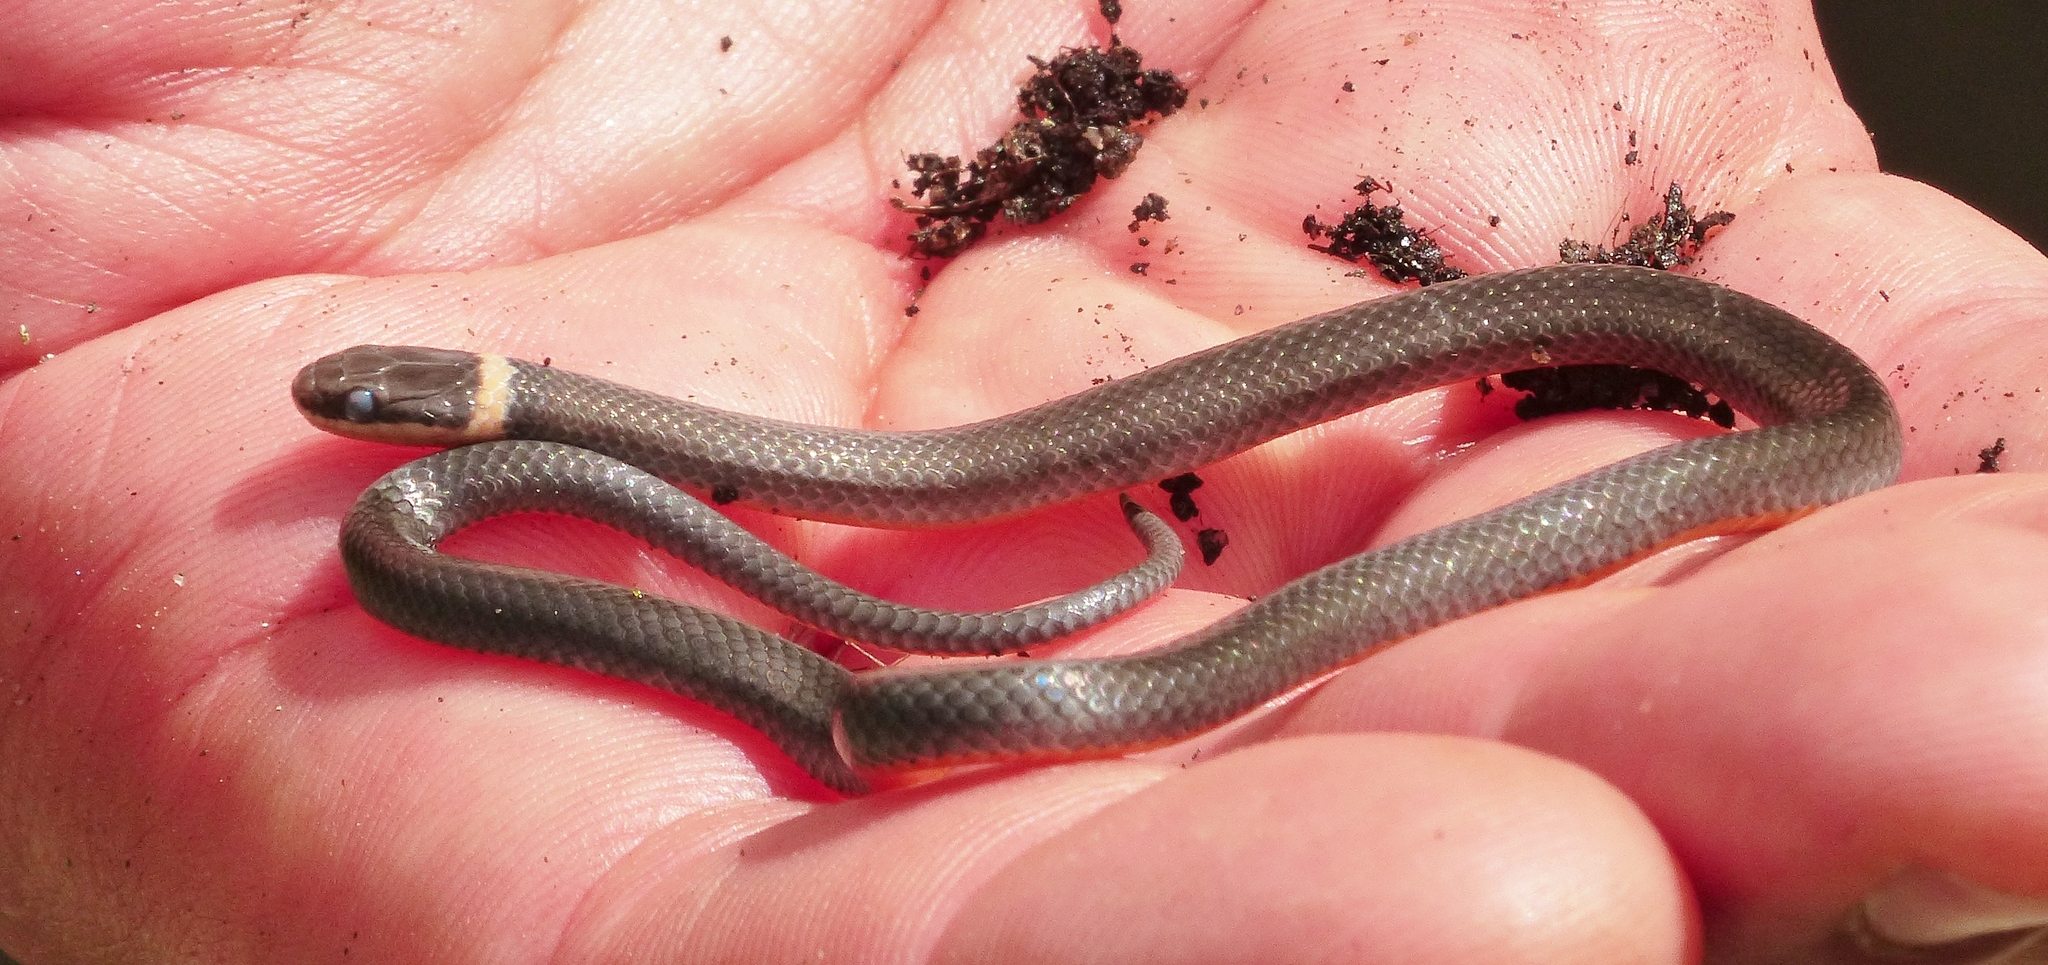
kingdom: Animalia
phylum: Chordata
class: Squamata
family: Colubridae
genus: Diadophis
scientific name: Diadophis punctatus
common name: Ringneck snake
